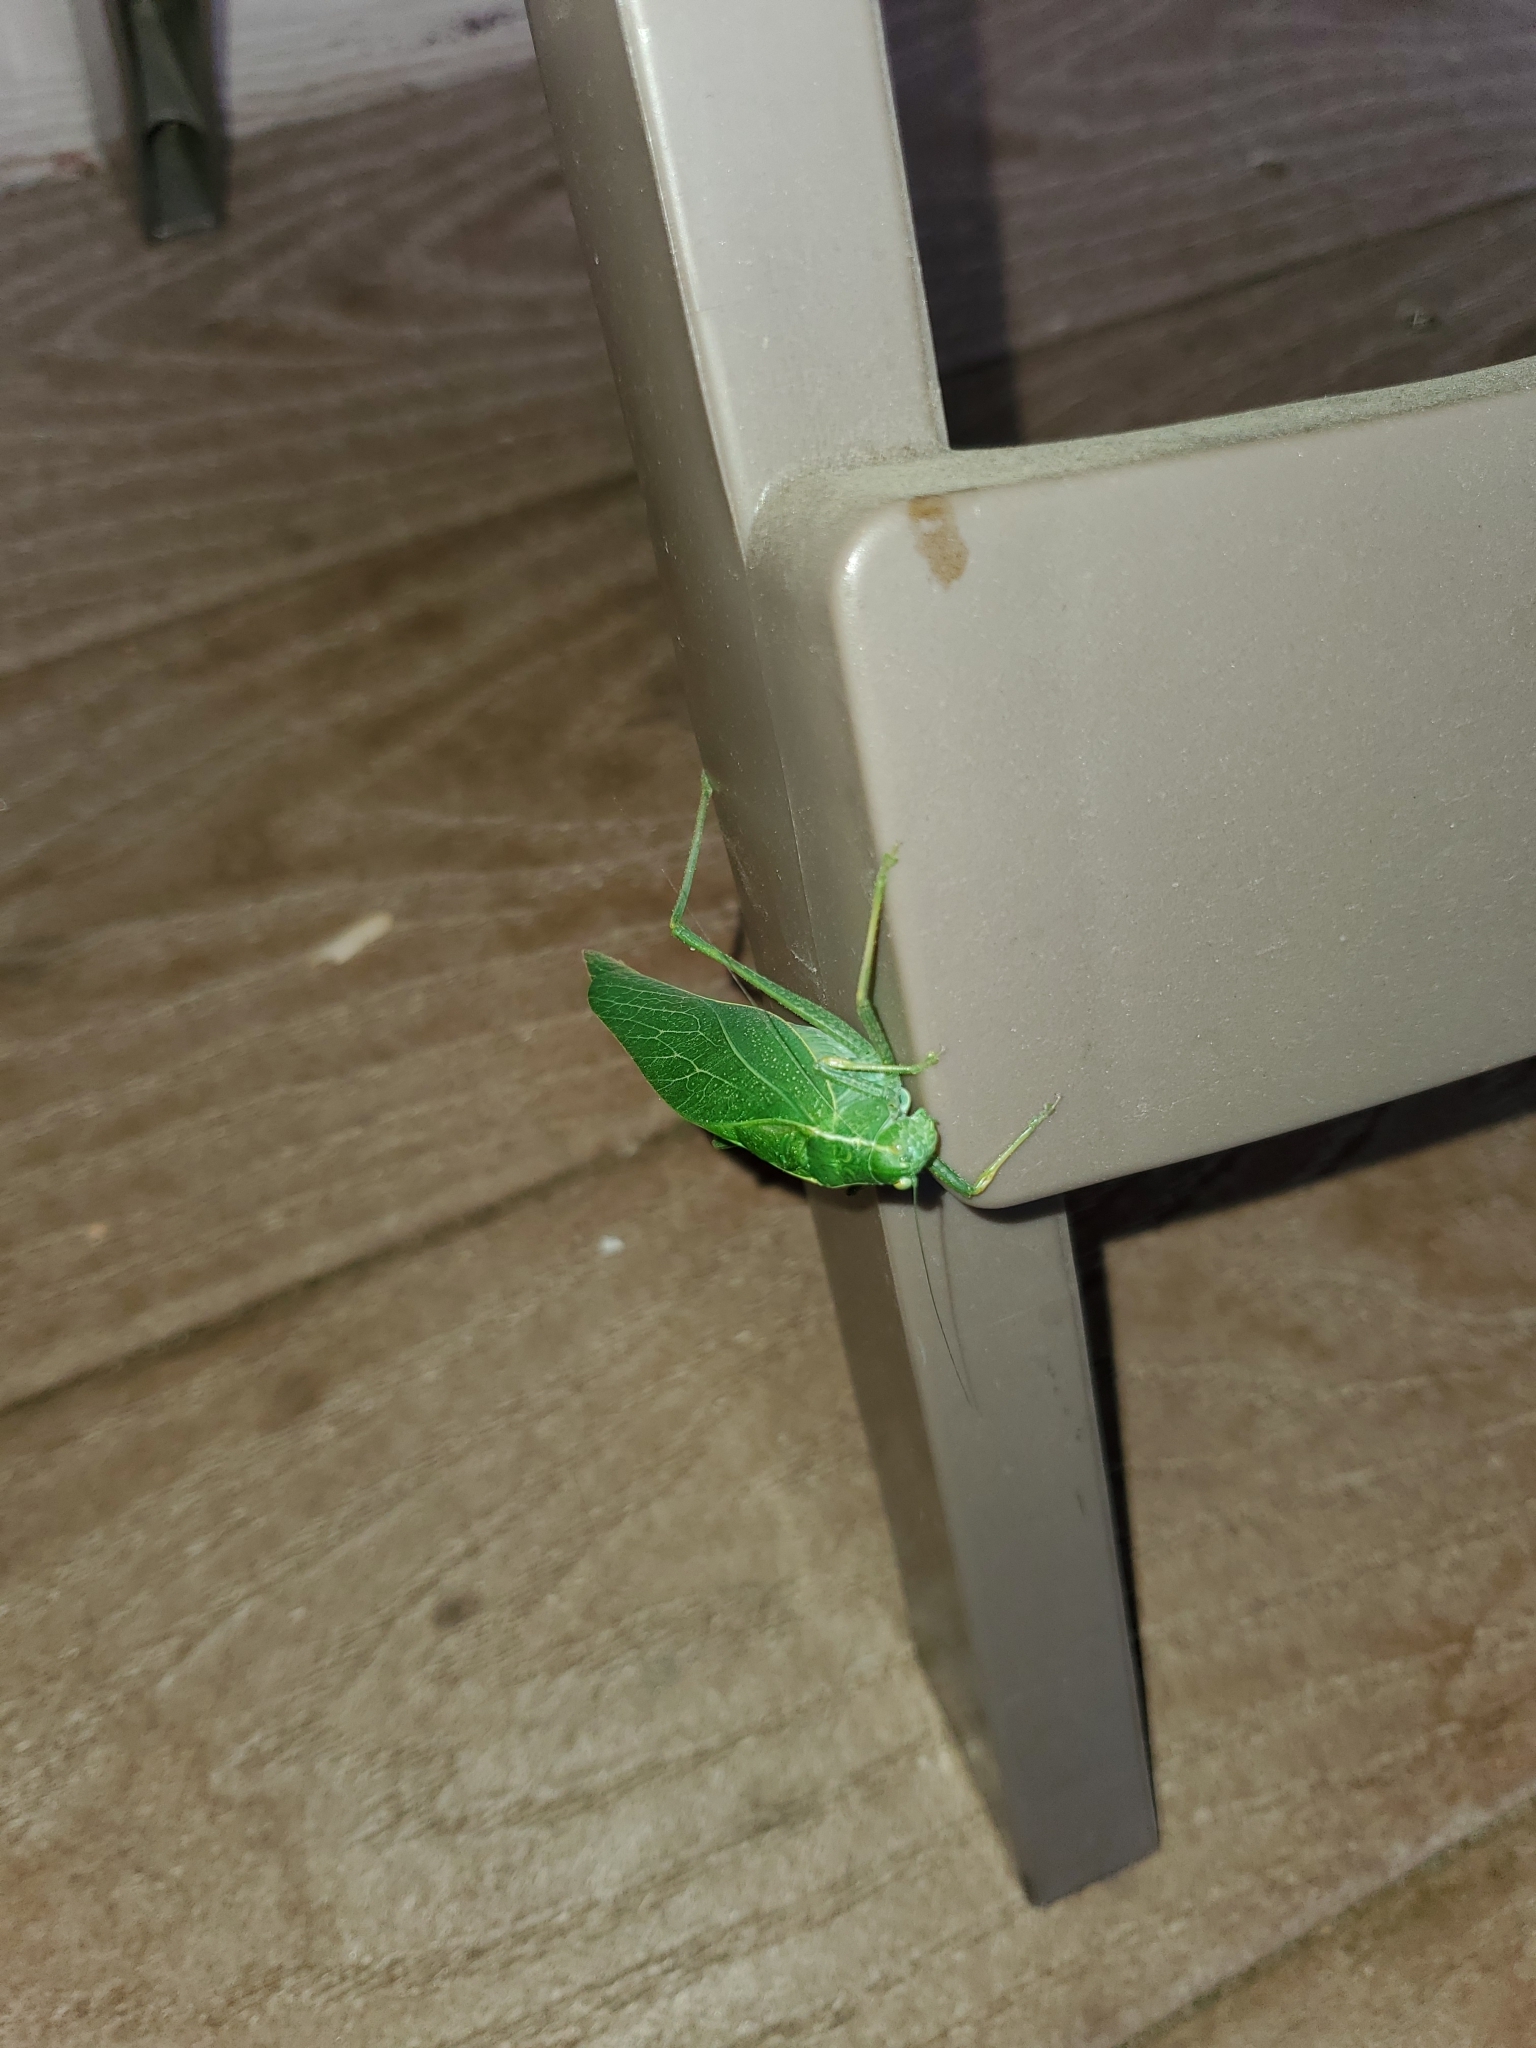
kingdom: Animalia
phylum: Arthropoda
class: Insecta
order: Orthoptera
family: Tettigoniidae
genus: Microcentrum
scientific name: Microcentrum rhombifolium
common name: Broad-winged katydid
